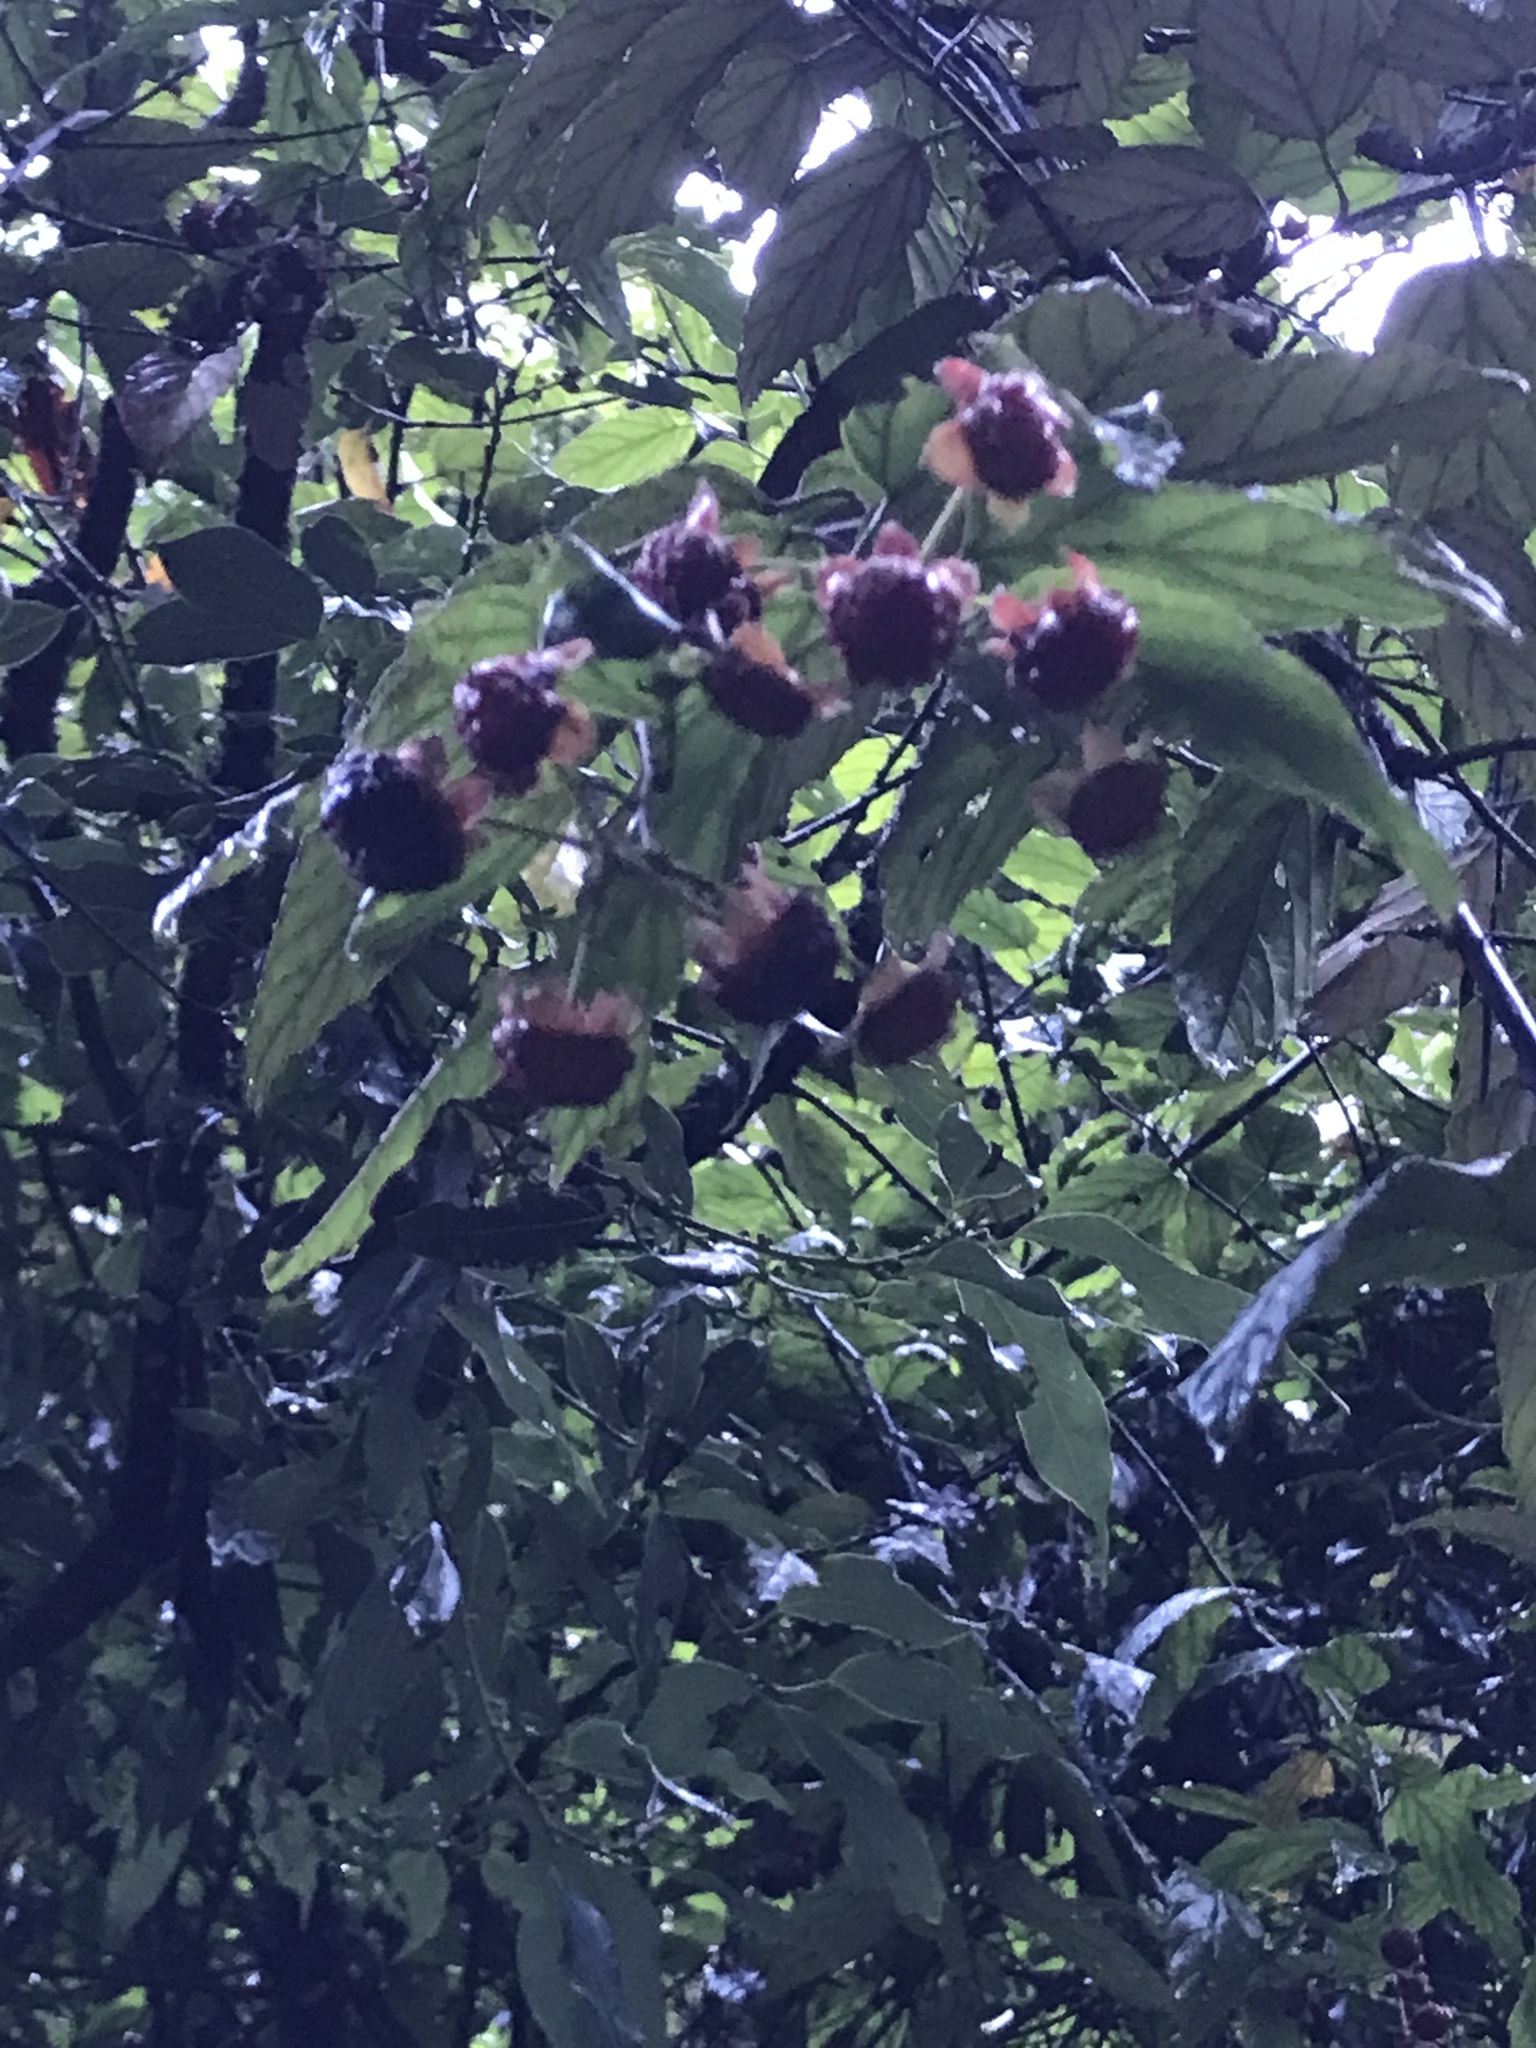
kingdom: Plantae
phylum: Tracheophyta
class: Magnoliopsida
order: Rosales
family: Rosaceae
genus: Rubus
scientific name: Rubus kawakamii
